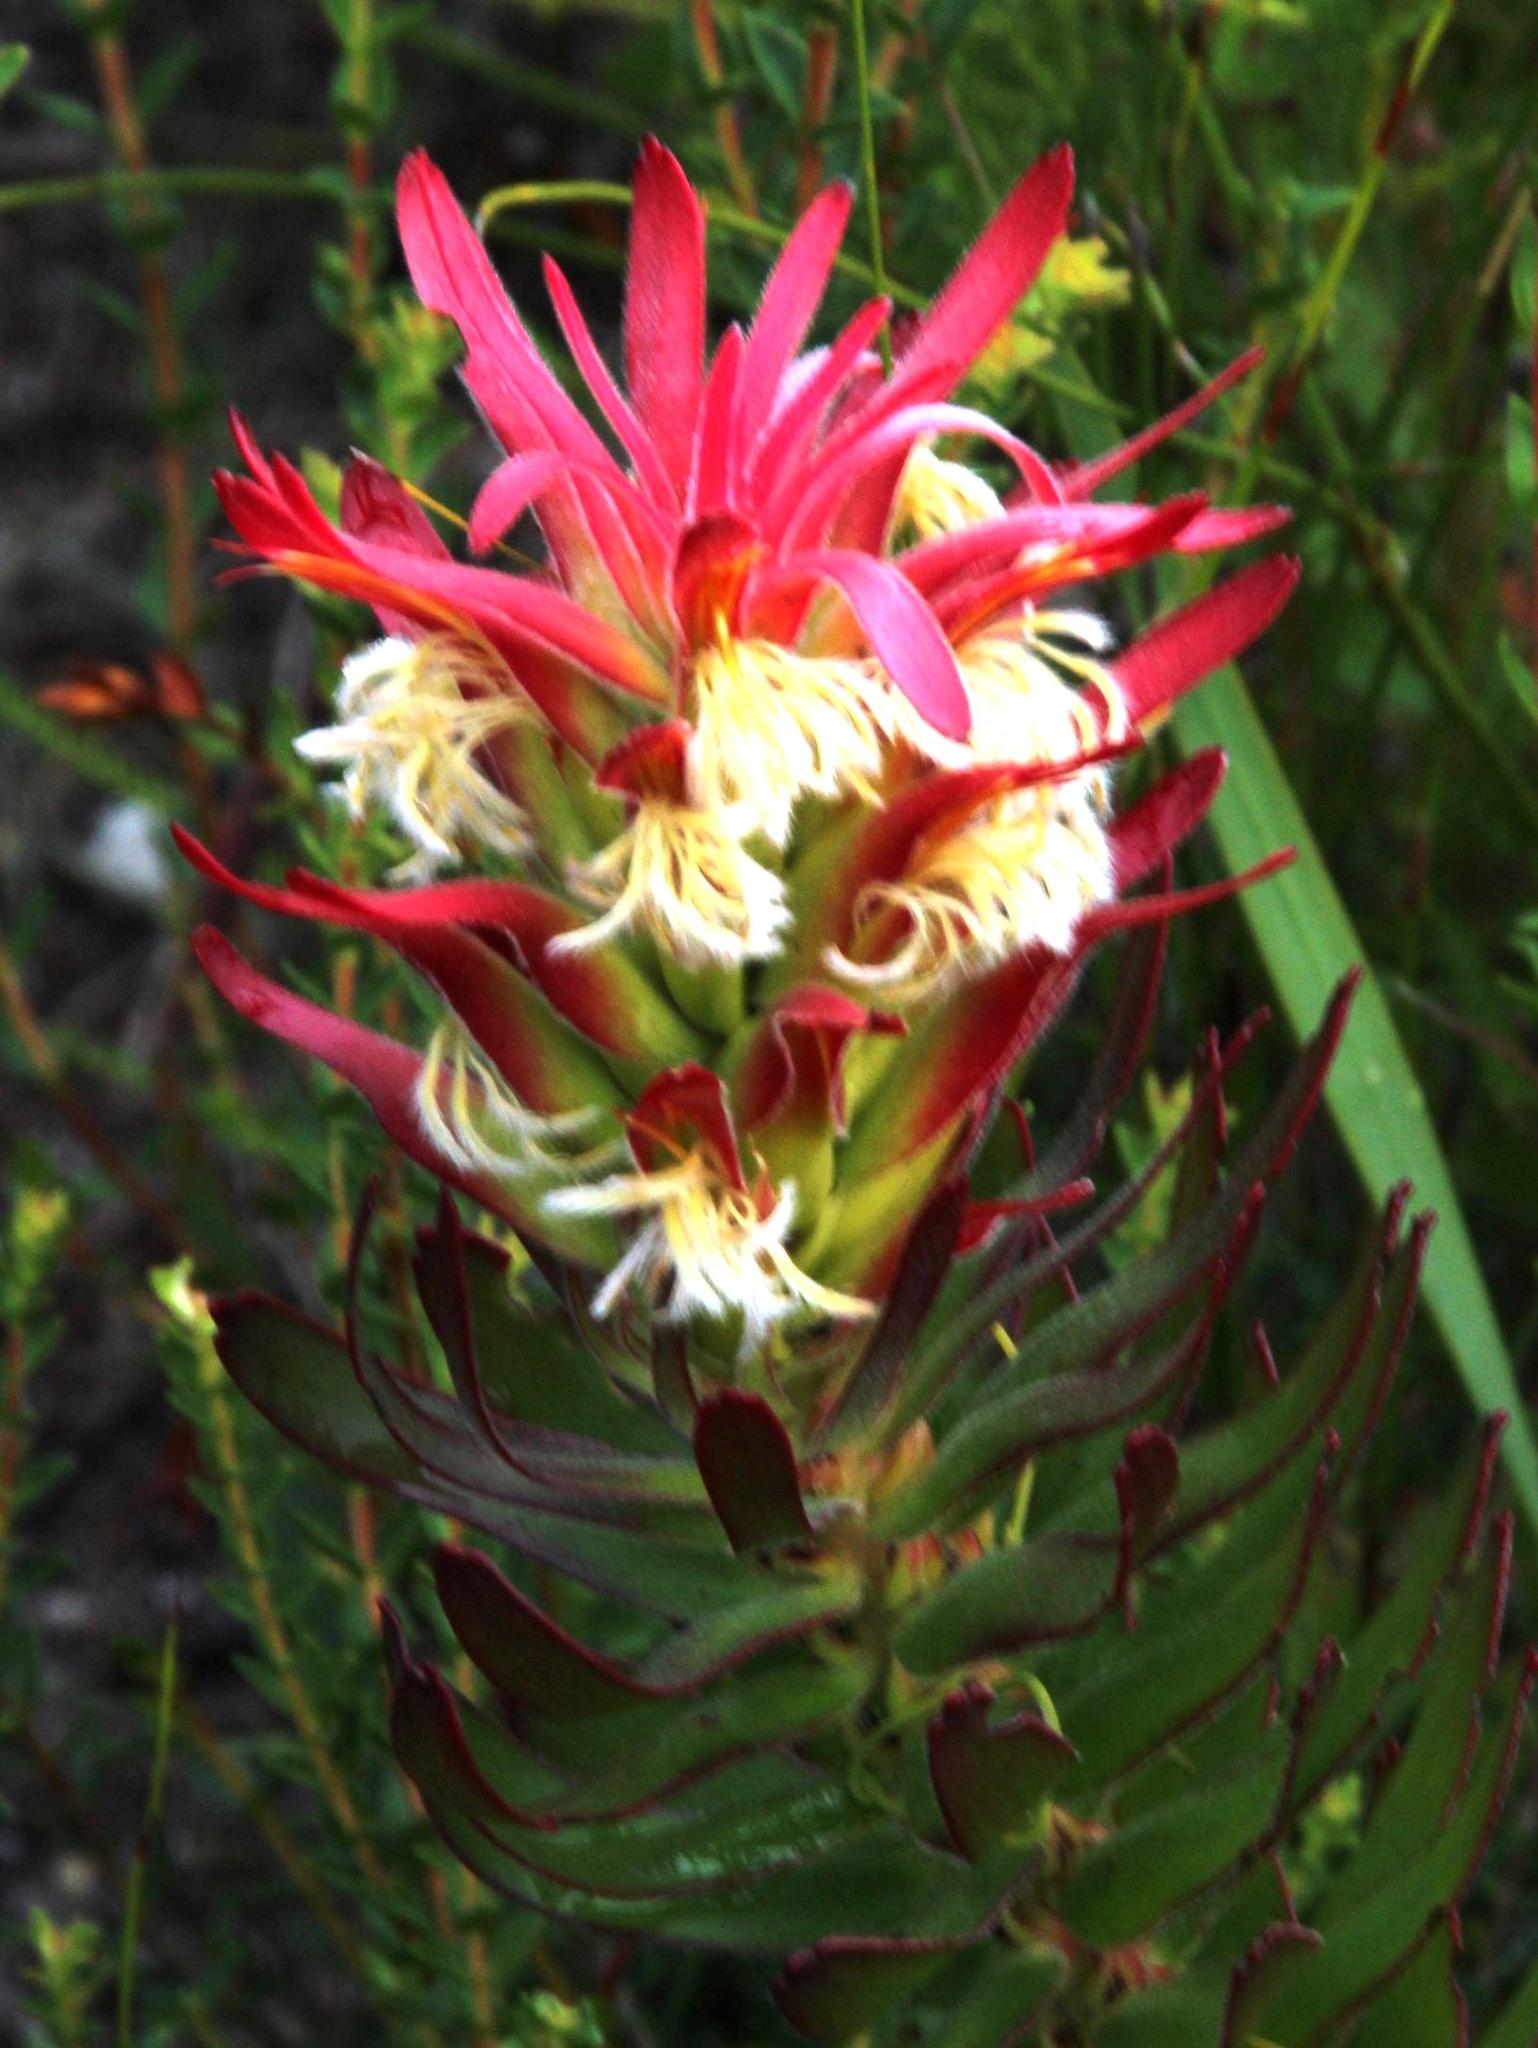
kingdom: Plantae
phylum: Tracheophyta
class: Magnoliopsida
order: Proteales
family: Proteaceae
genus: Mimetes
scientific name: Mimetes cucullatus
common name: Common pagoda
